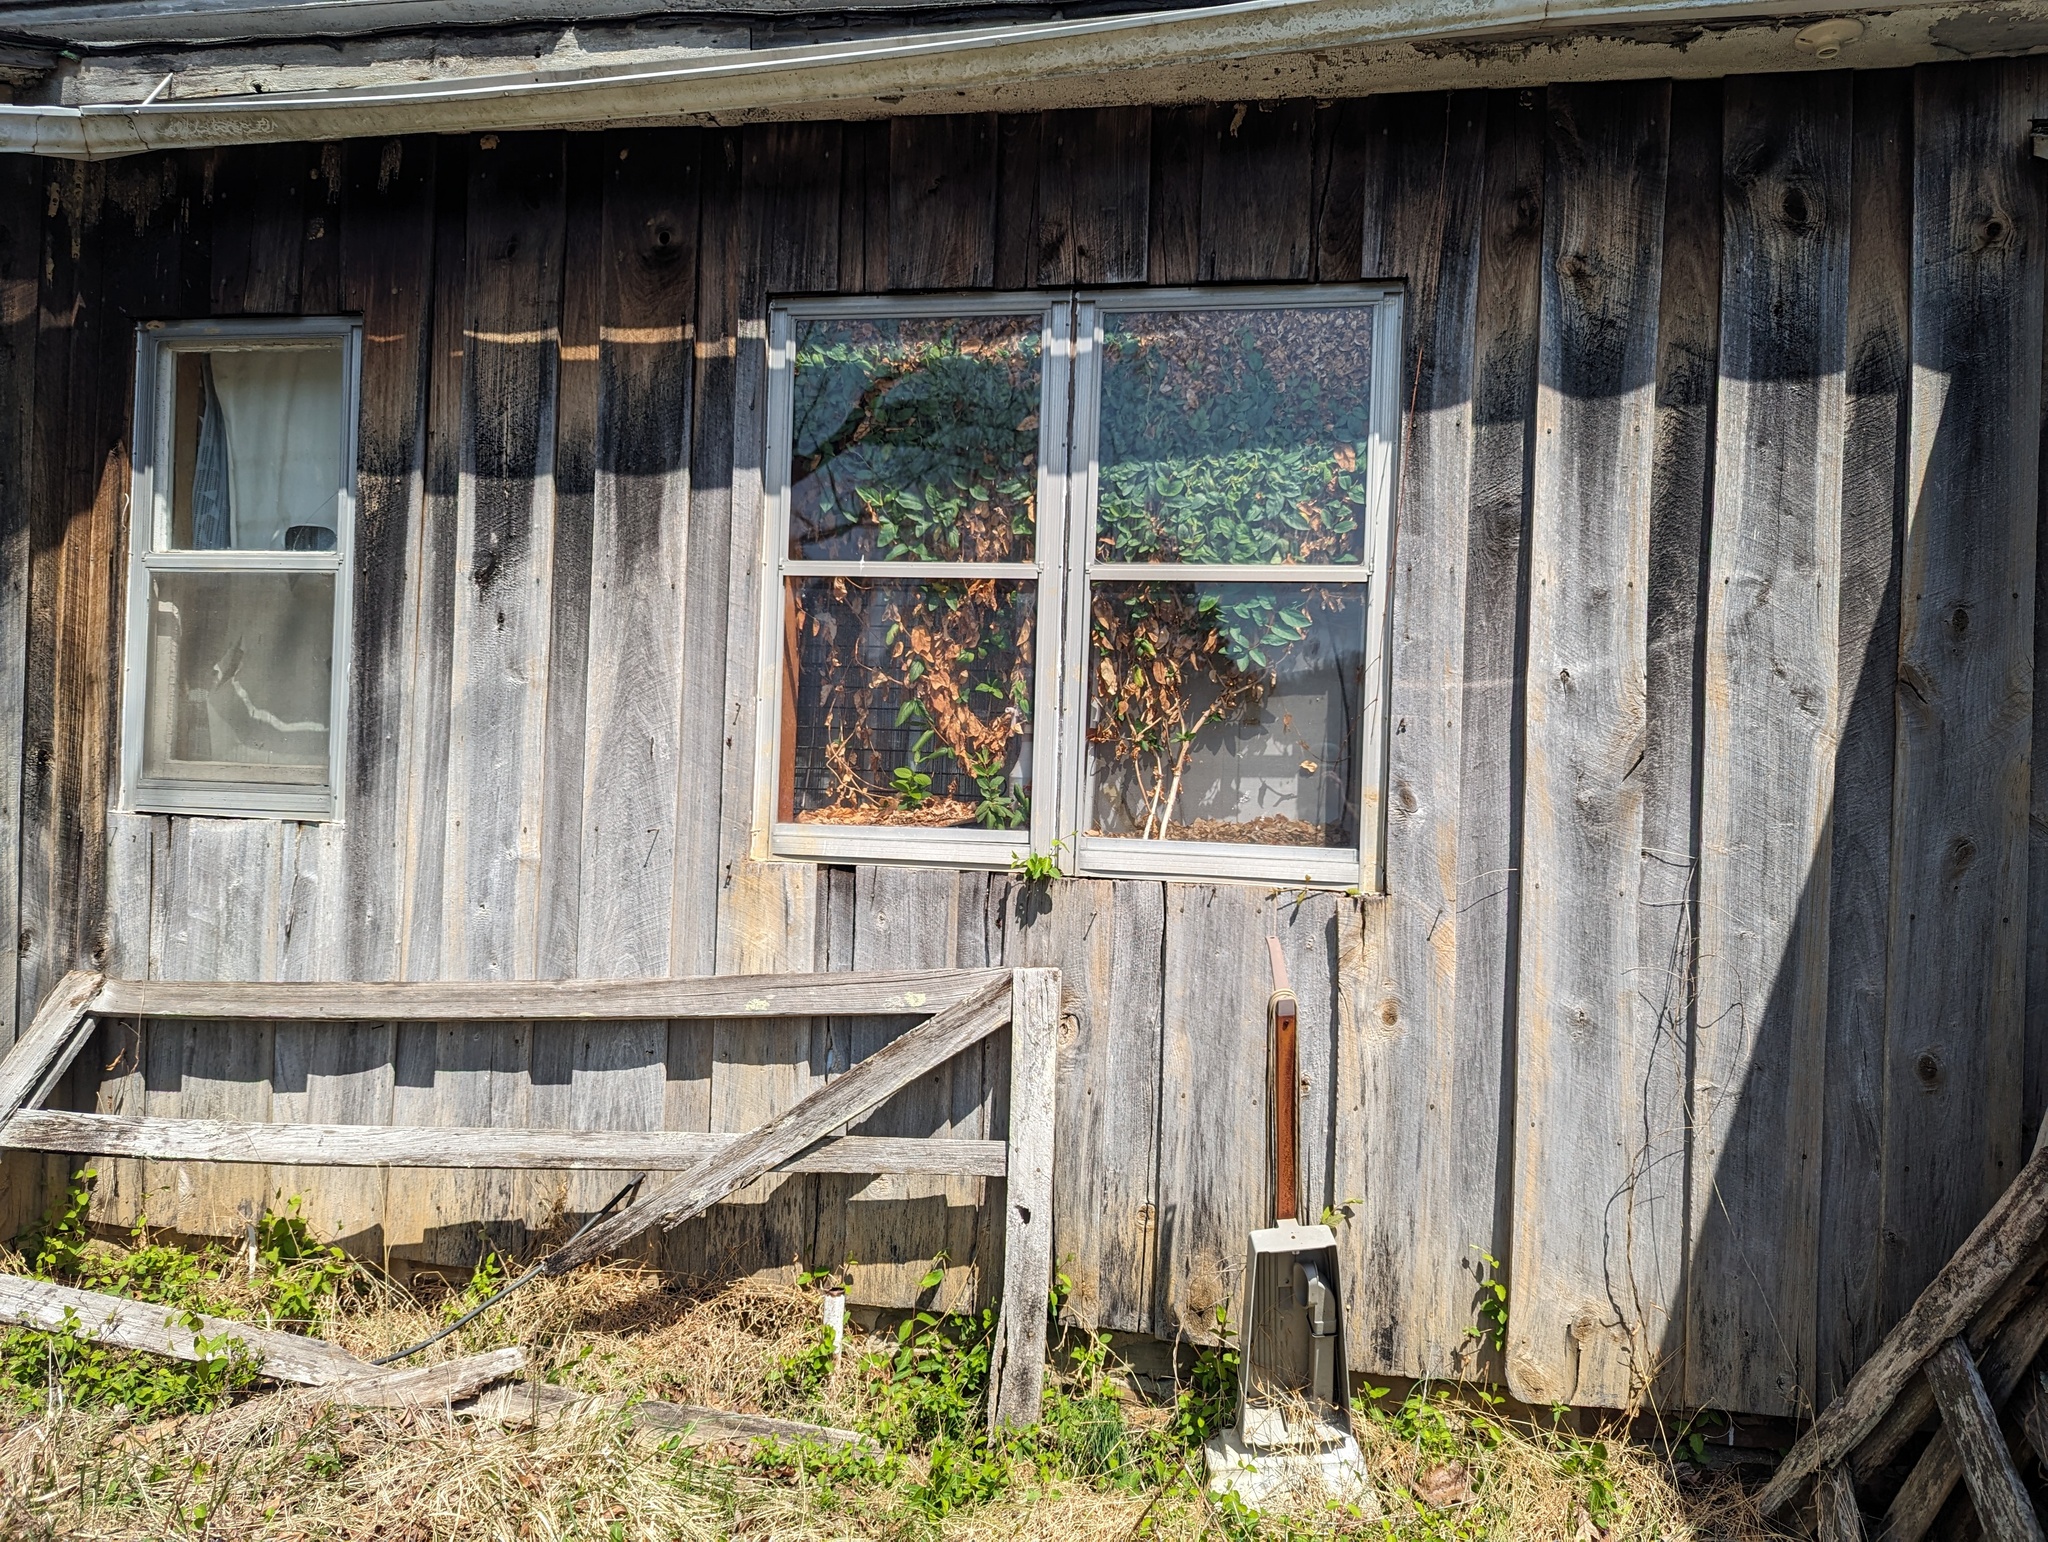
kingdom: Plantae
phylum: Tracheophyta
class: Magnoliopsida
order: Dipsacales
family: Caprifoliaceae
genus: Lonicera
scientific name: Lonicera japonica
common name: Japanese honeysuckle
